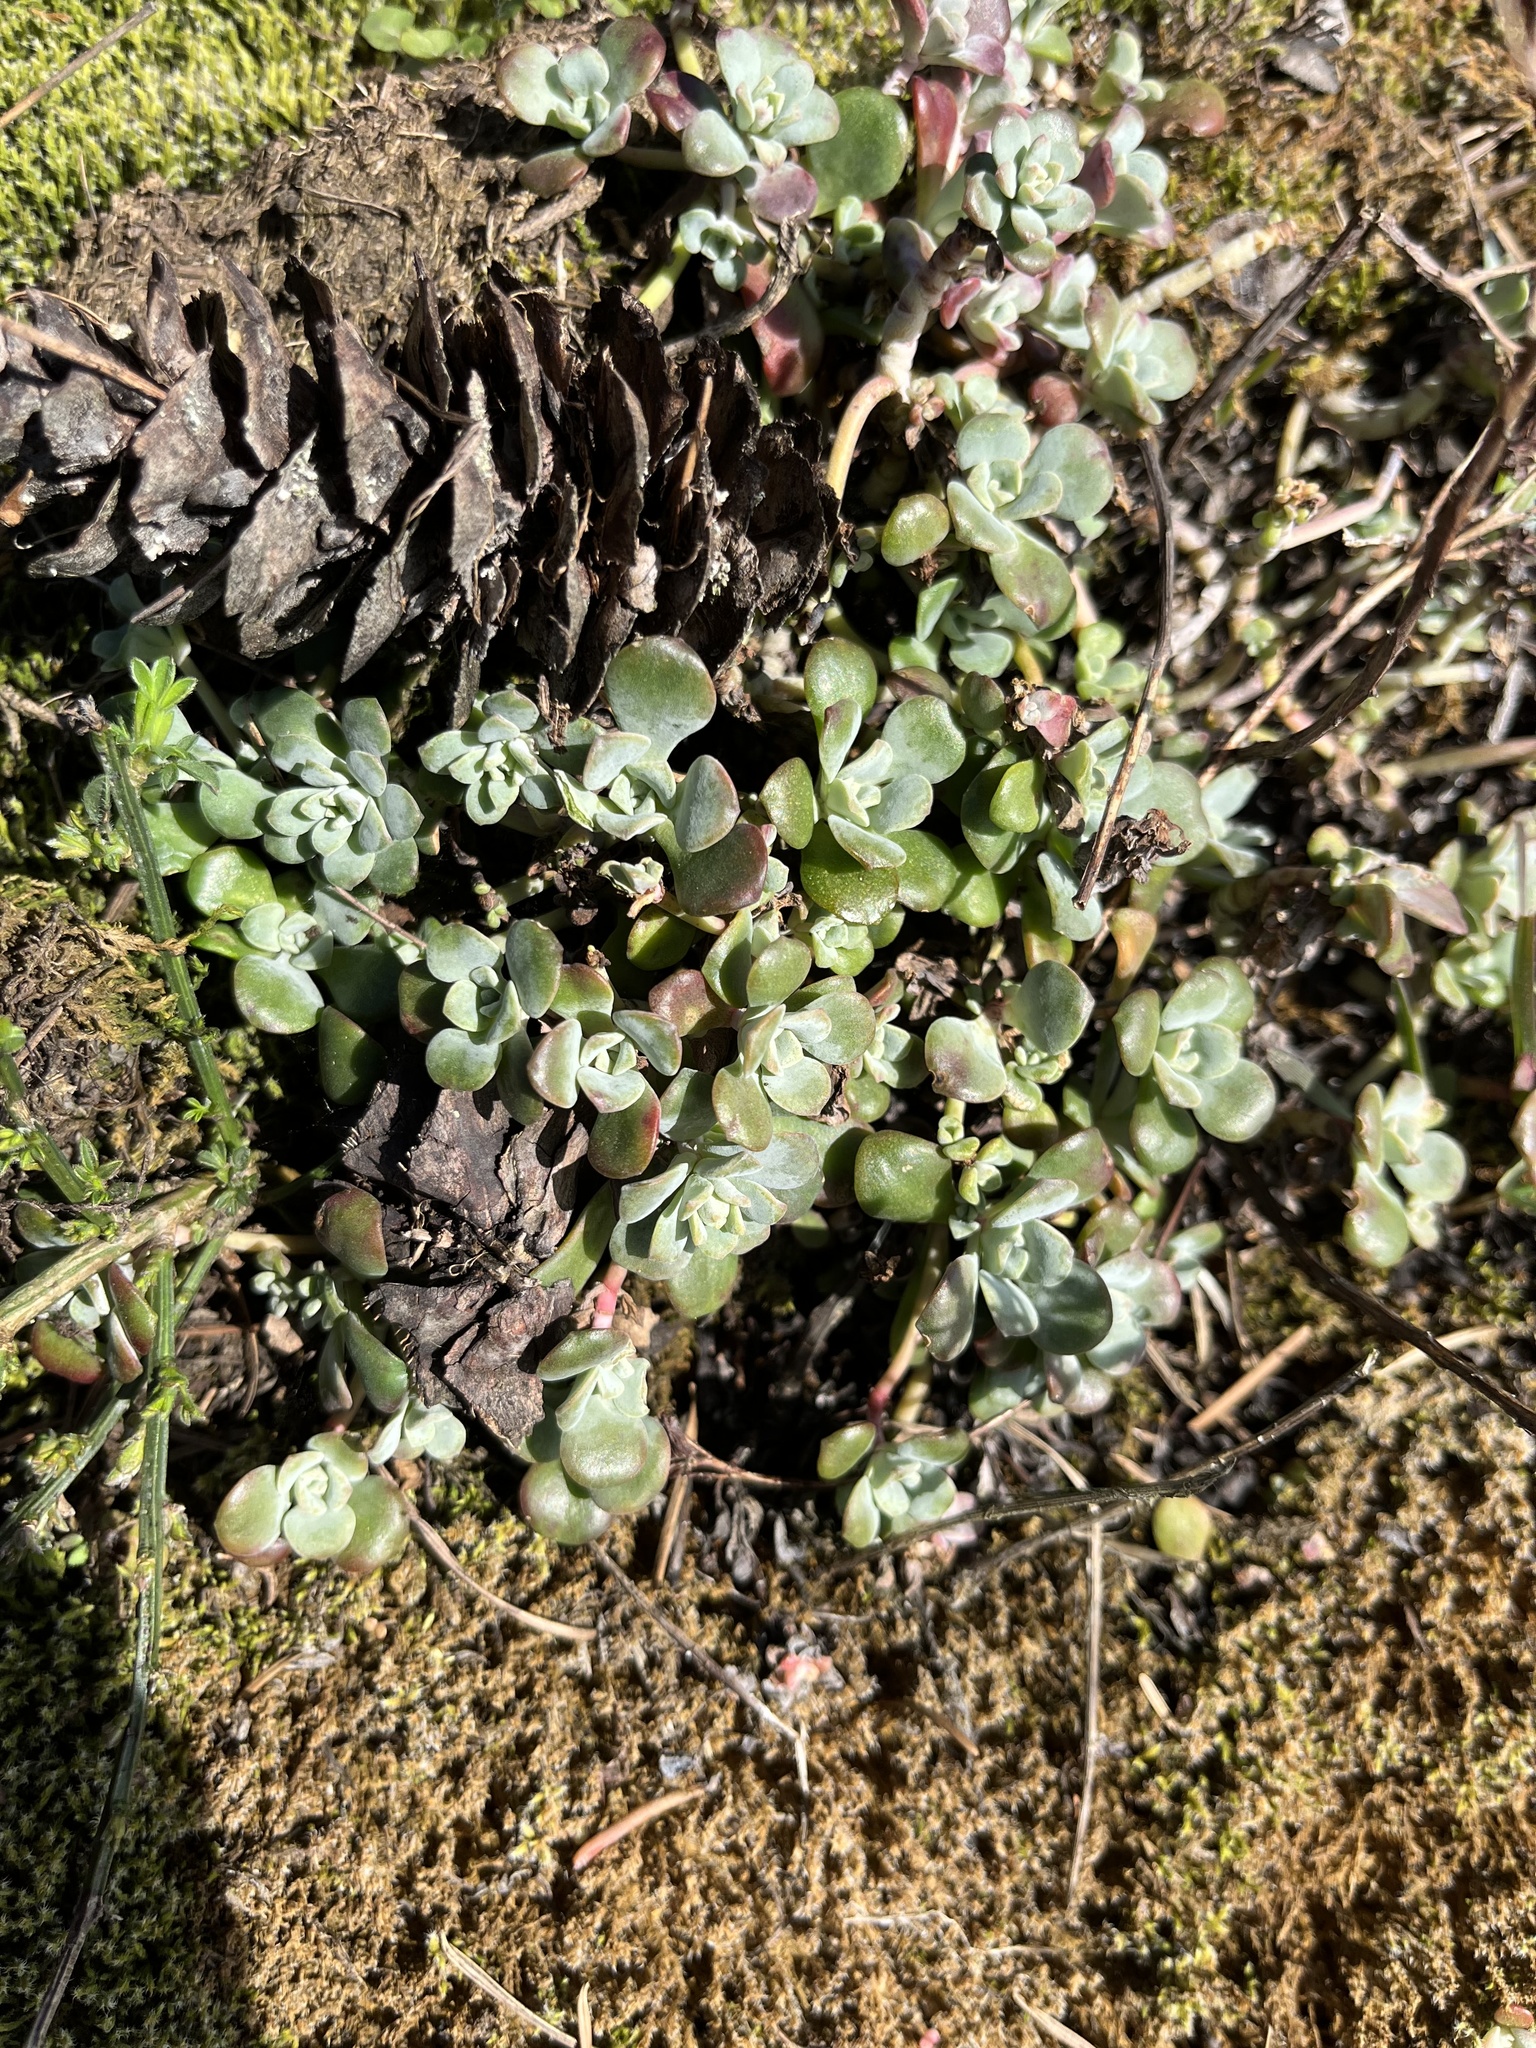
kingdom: Plantae
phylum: Tracheophyta
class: Magnoliopsida
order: Saxifragales
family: Crassulaceae
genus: Sedum
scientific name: Sedum spathulifolium
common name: Colorado stonecrop
